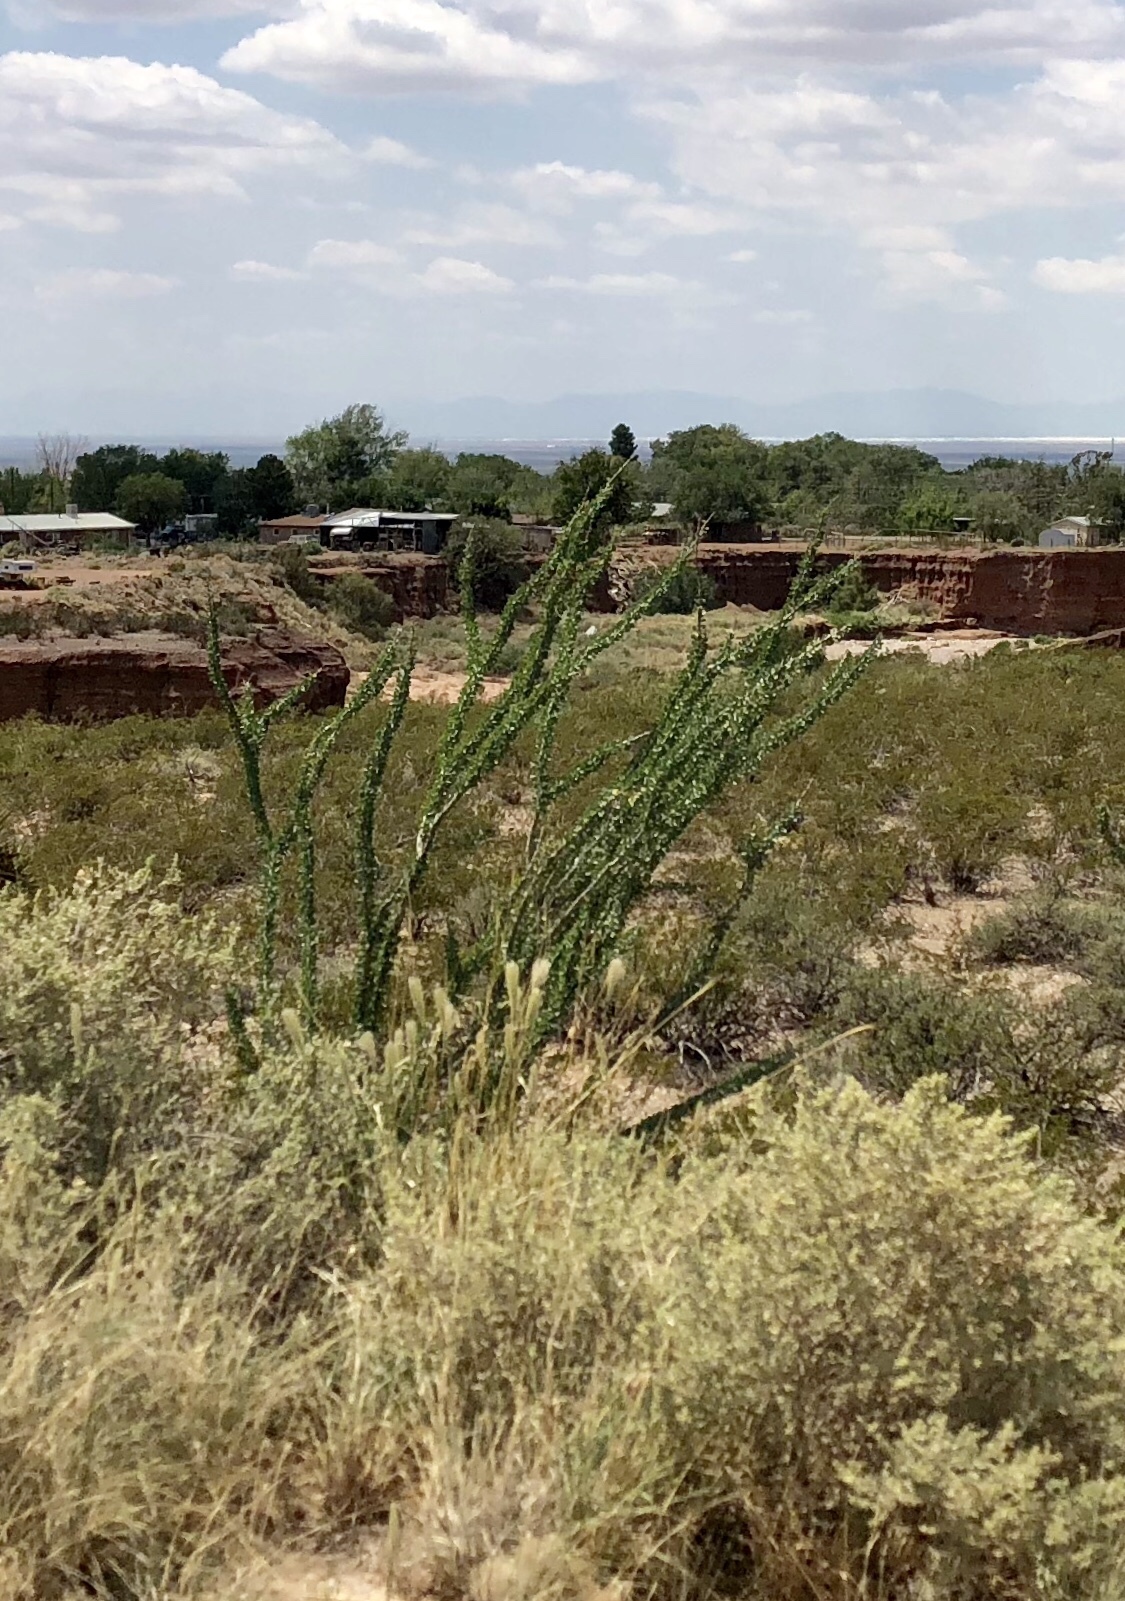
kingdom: Plantae
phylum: Tracheophyta
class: Magnoliopsida
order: Ericales
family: Fouquieriaceae
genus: Fouquieria
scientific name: Fouquieria splendens
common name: Vine-cactus
